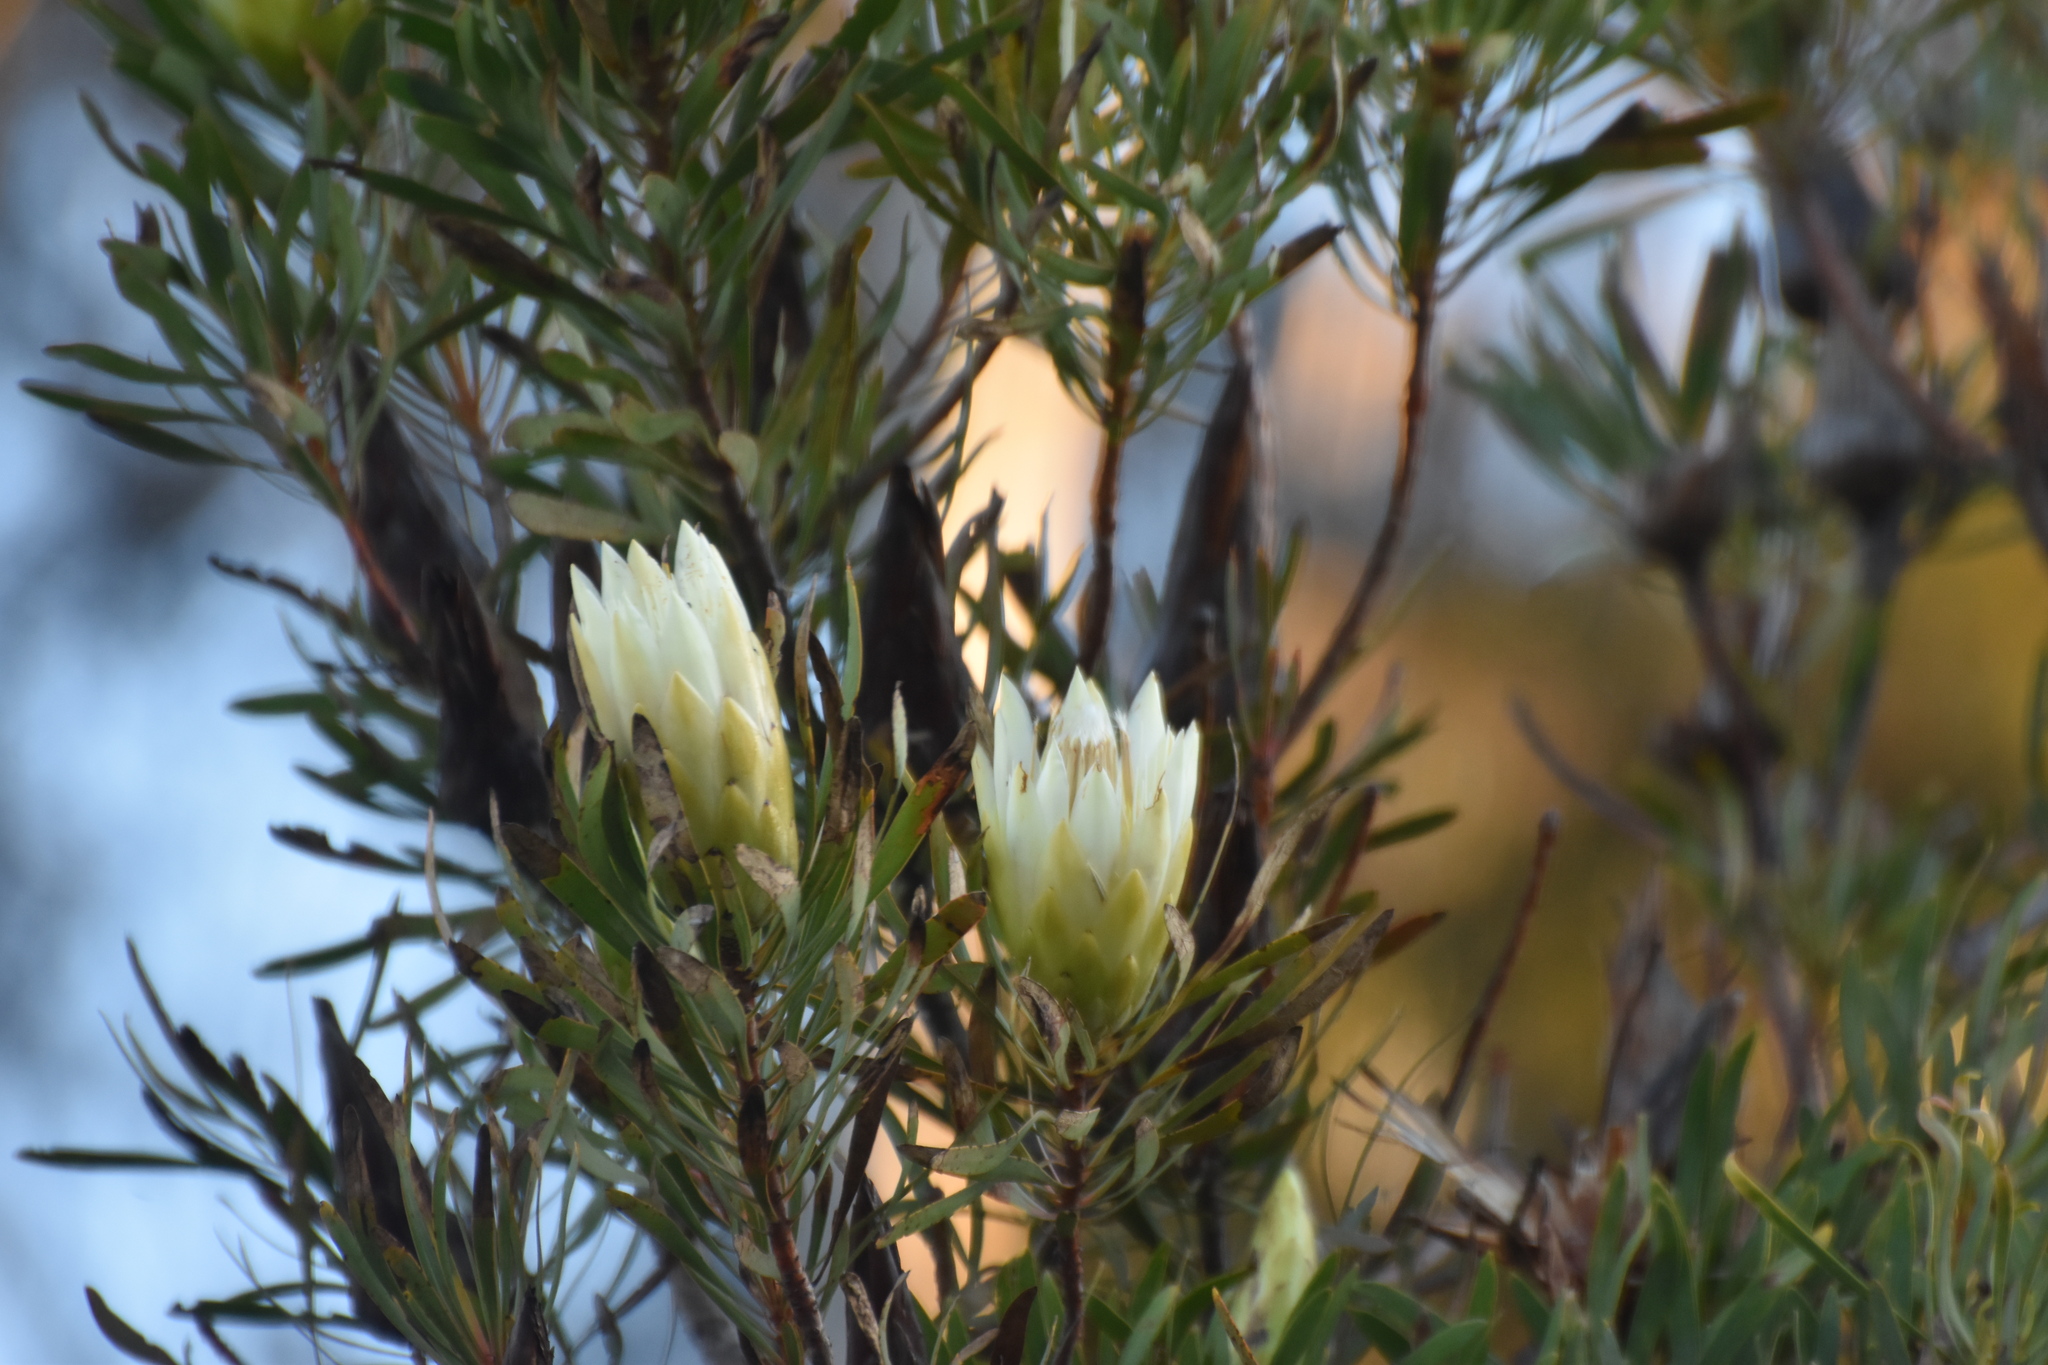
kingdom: Plantae
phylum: Tracheophyta
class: Magnoliopsida
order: Proteales
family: Proteaceae
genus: Protea
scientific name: Protea repens
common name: Sugarbush
